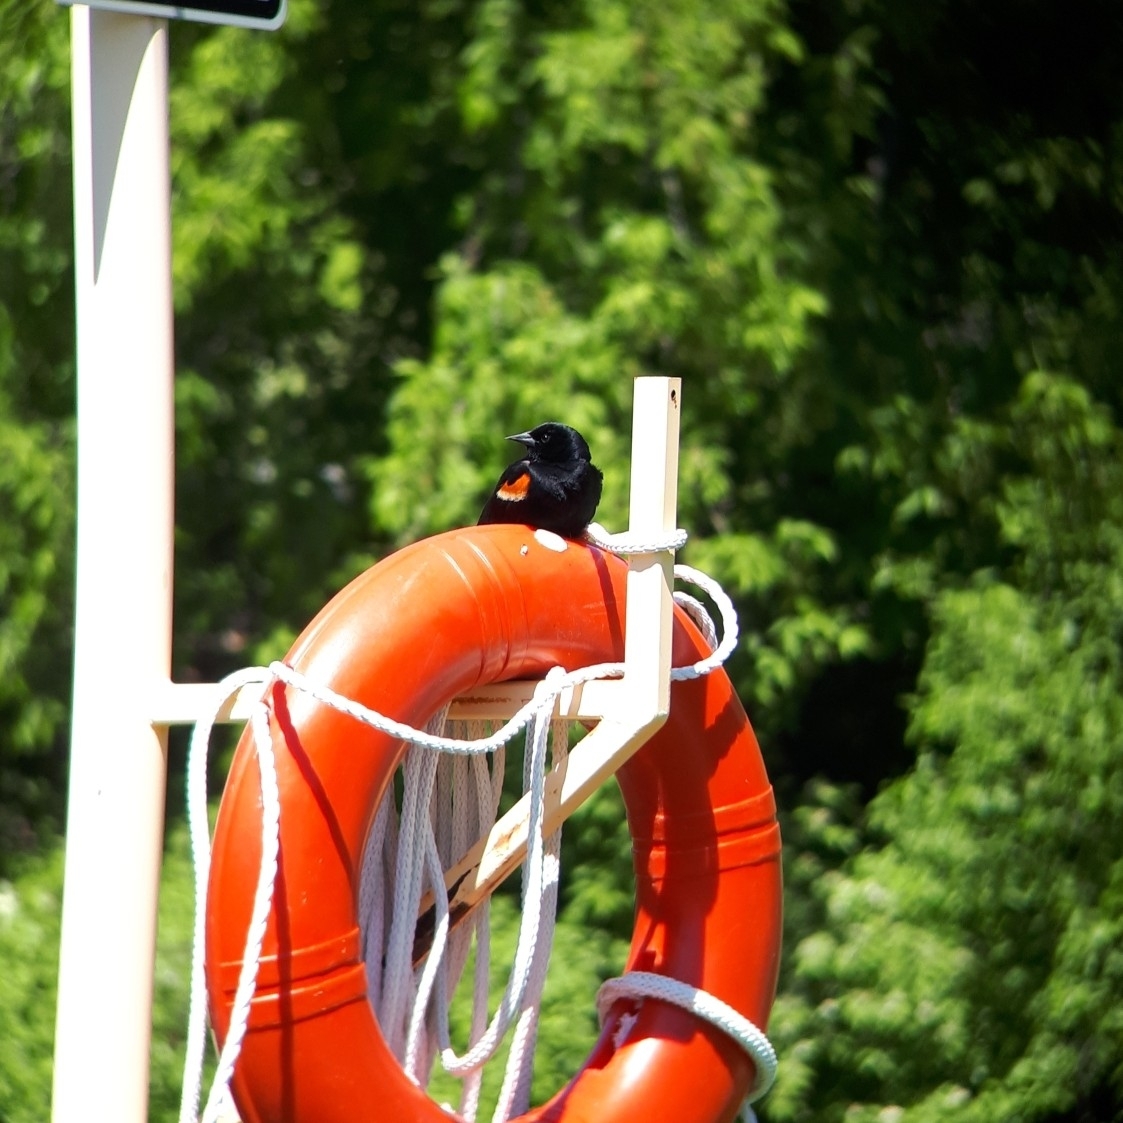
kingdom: Animalia
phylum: Chordata
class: Aves
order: Passeriformes
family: Icteridae
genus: Agelaius
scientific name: Agelaius phoeniceus
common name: Red-winged blackbird
